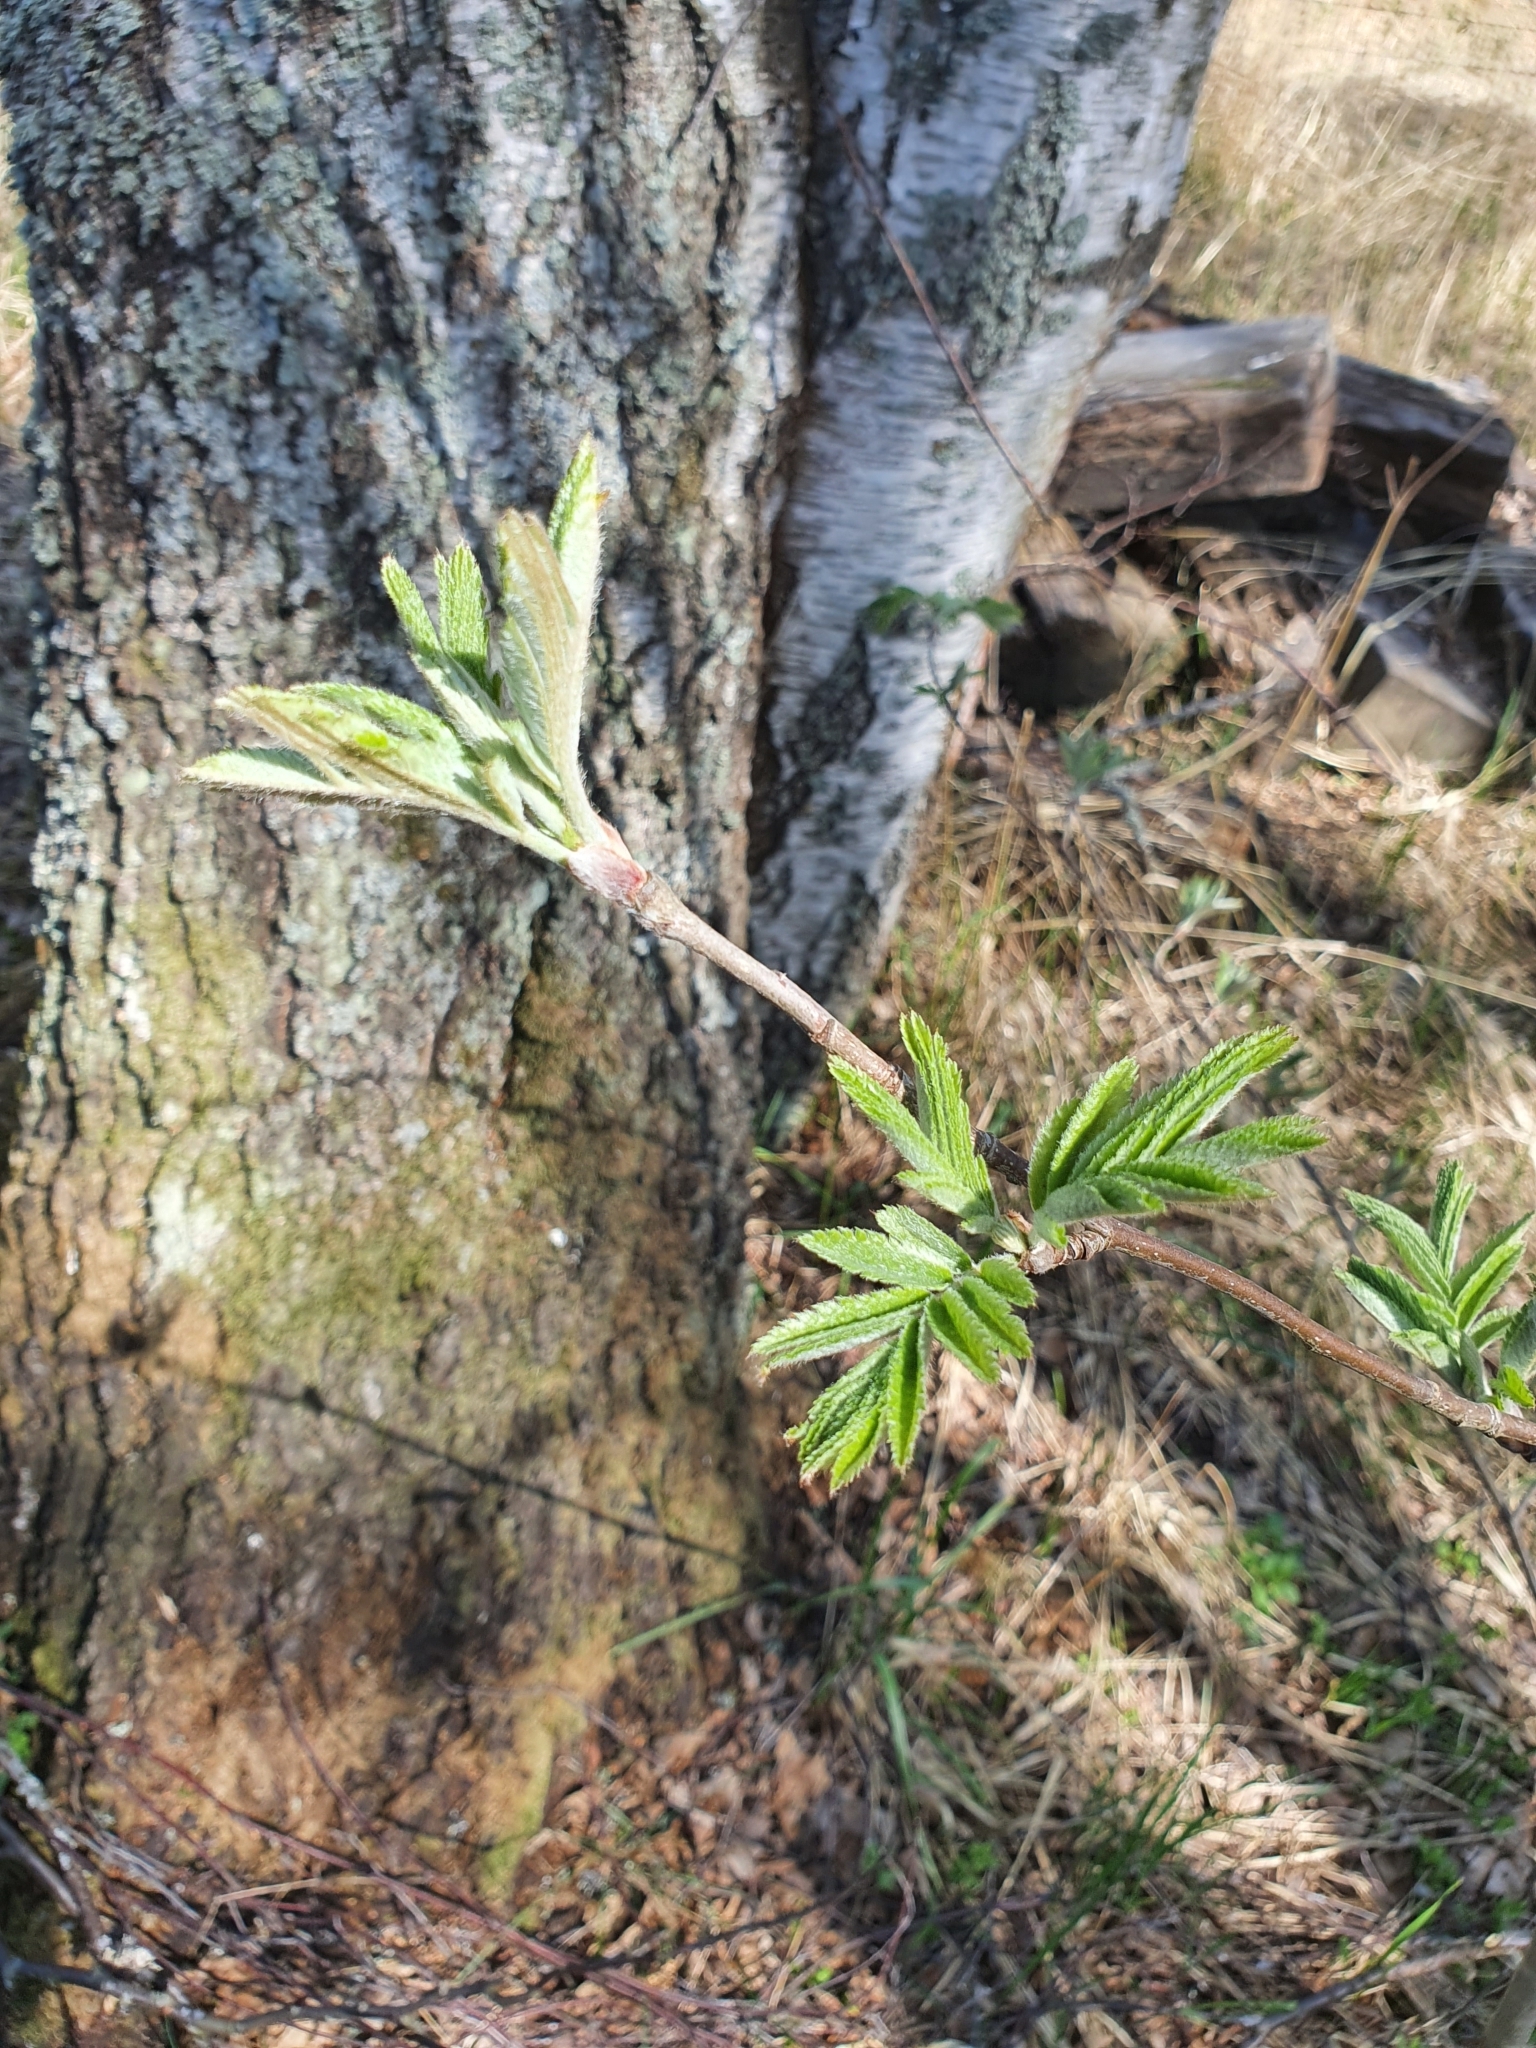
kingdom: Plantae
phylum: Tracheophyta
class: Magnoliopsida
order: Rosales
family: Rosaceae
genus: Sorbus
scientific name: Sorbus aucuparia
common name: Rowan
